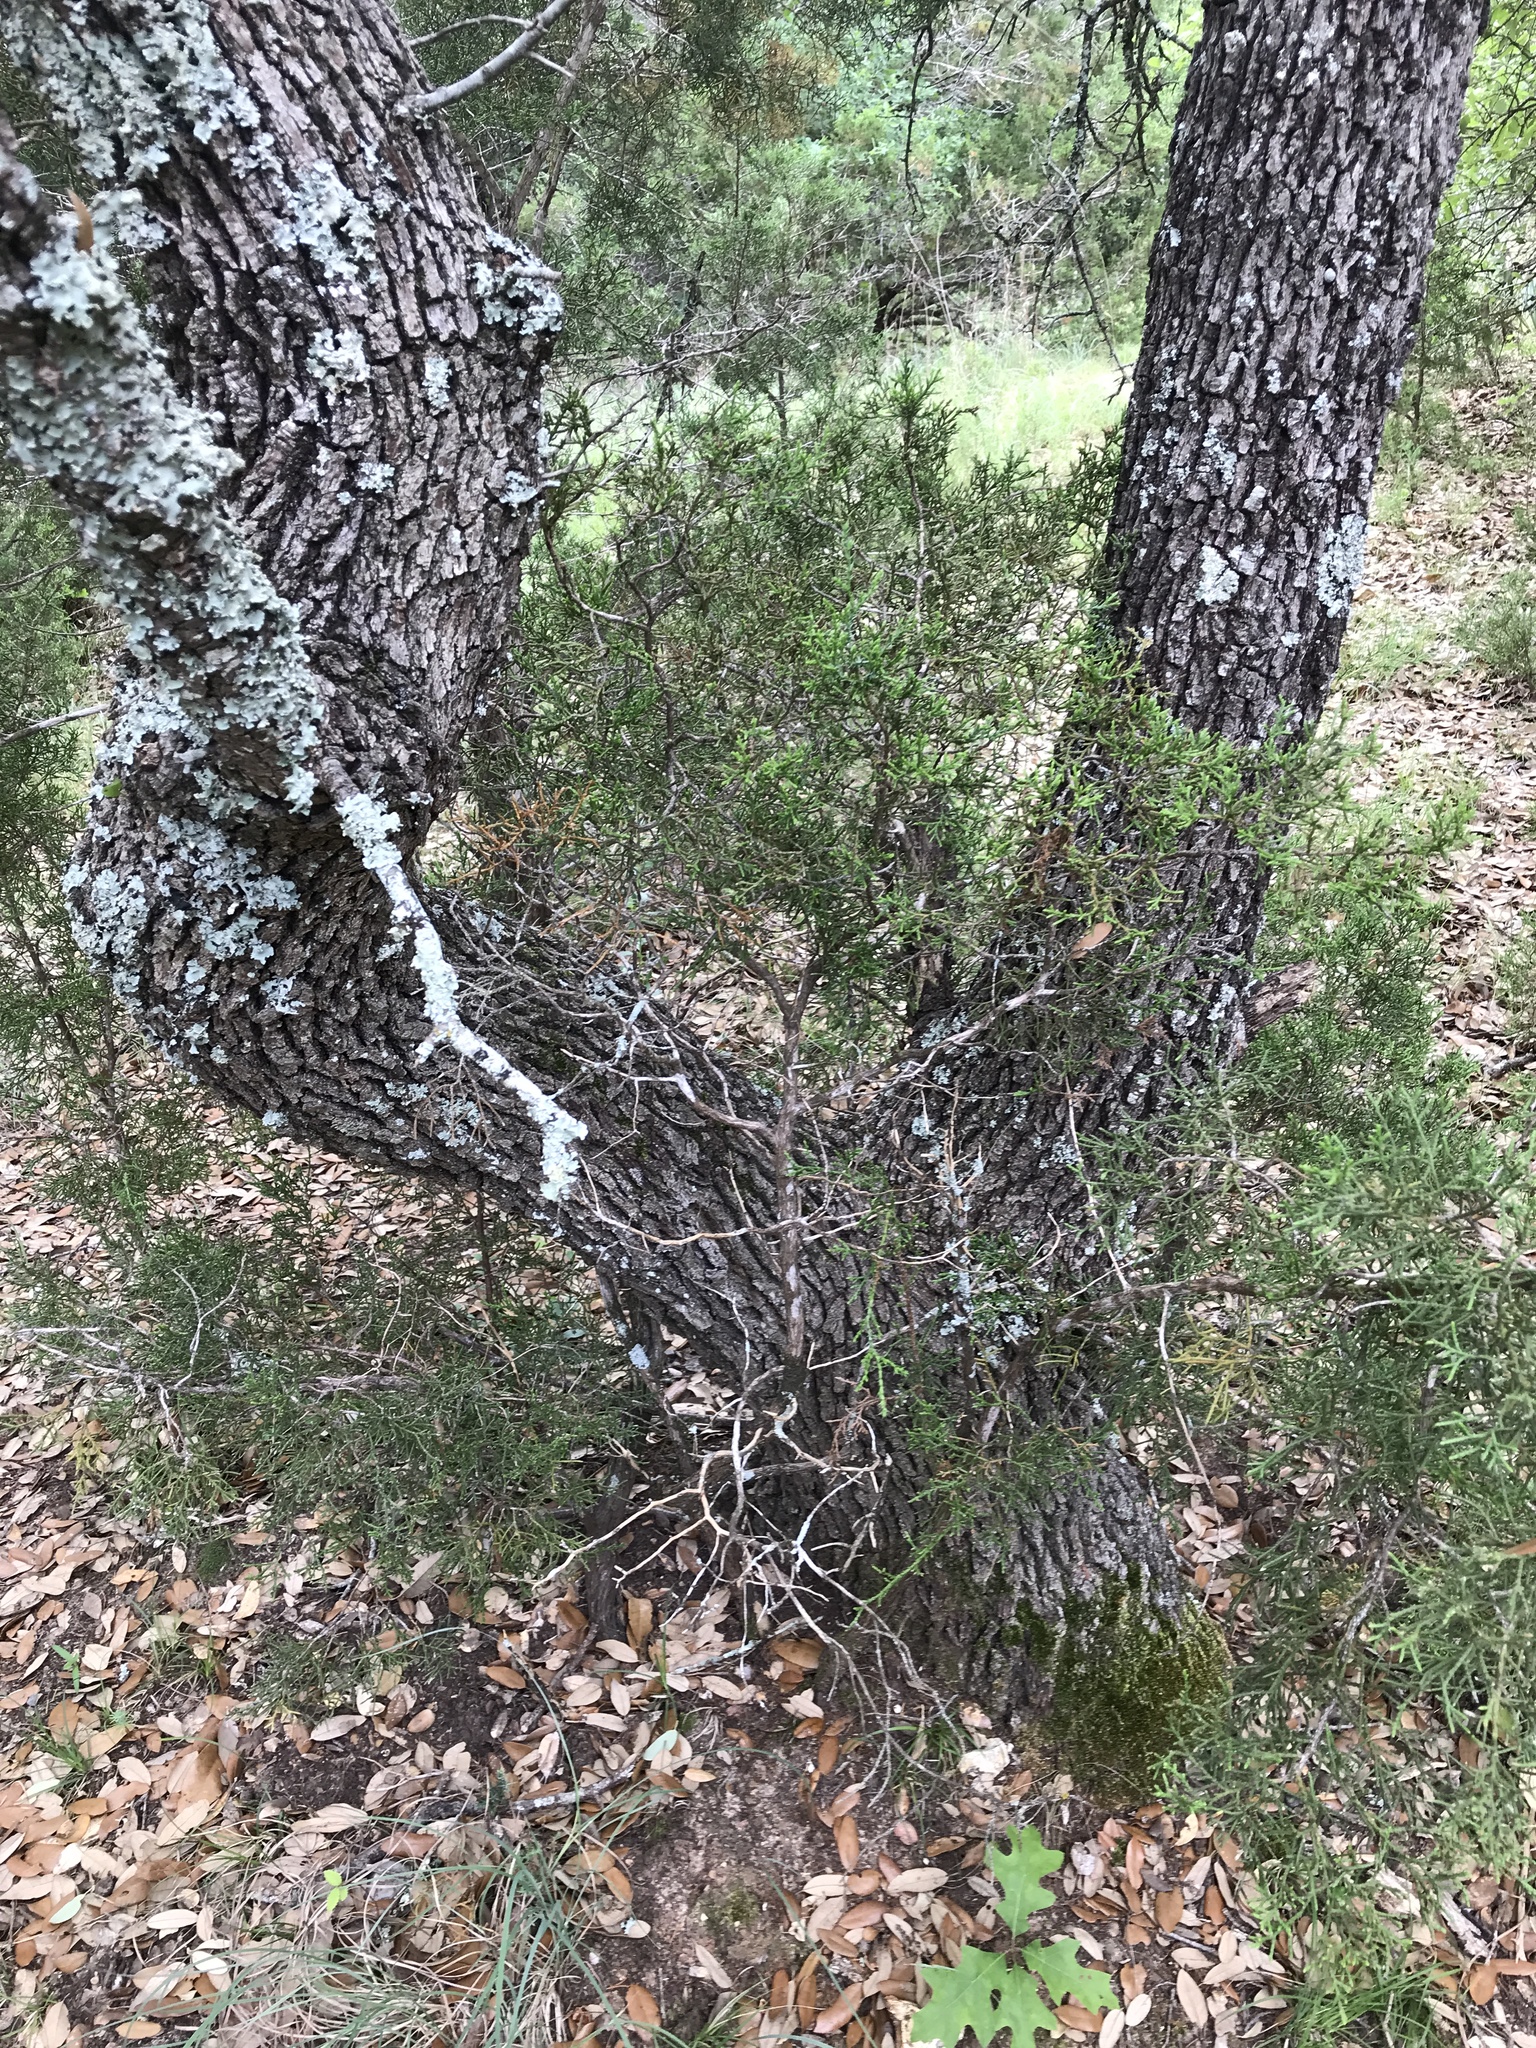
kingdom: Plantae
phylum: Tracheophyta
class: Magnoliopsida
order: Fagales
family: Fagaceae
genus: Quercus
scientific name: Quercus fusiformis
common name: Texas live oak
